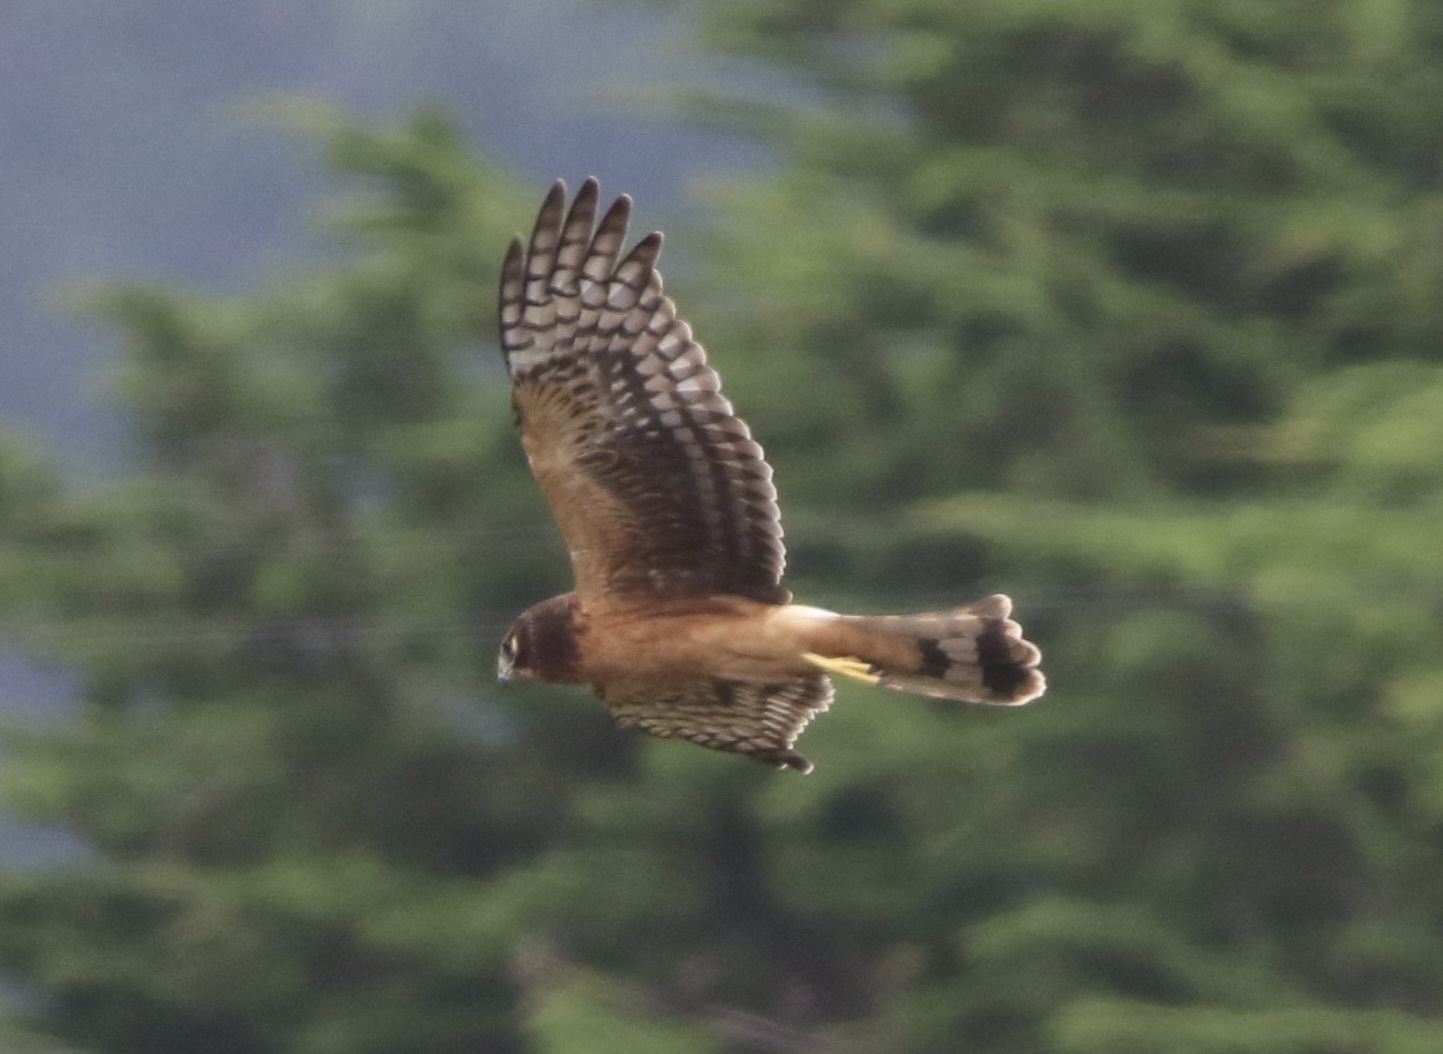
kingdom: Animalia
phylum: Chordata
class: Aves
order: Accipitriformes
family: Accipitridae
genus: Circus
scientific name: Circus cyaneus
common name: Hen harrier
